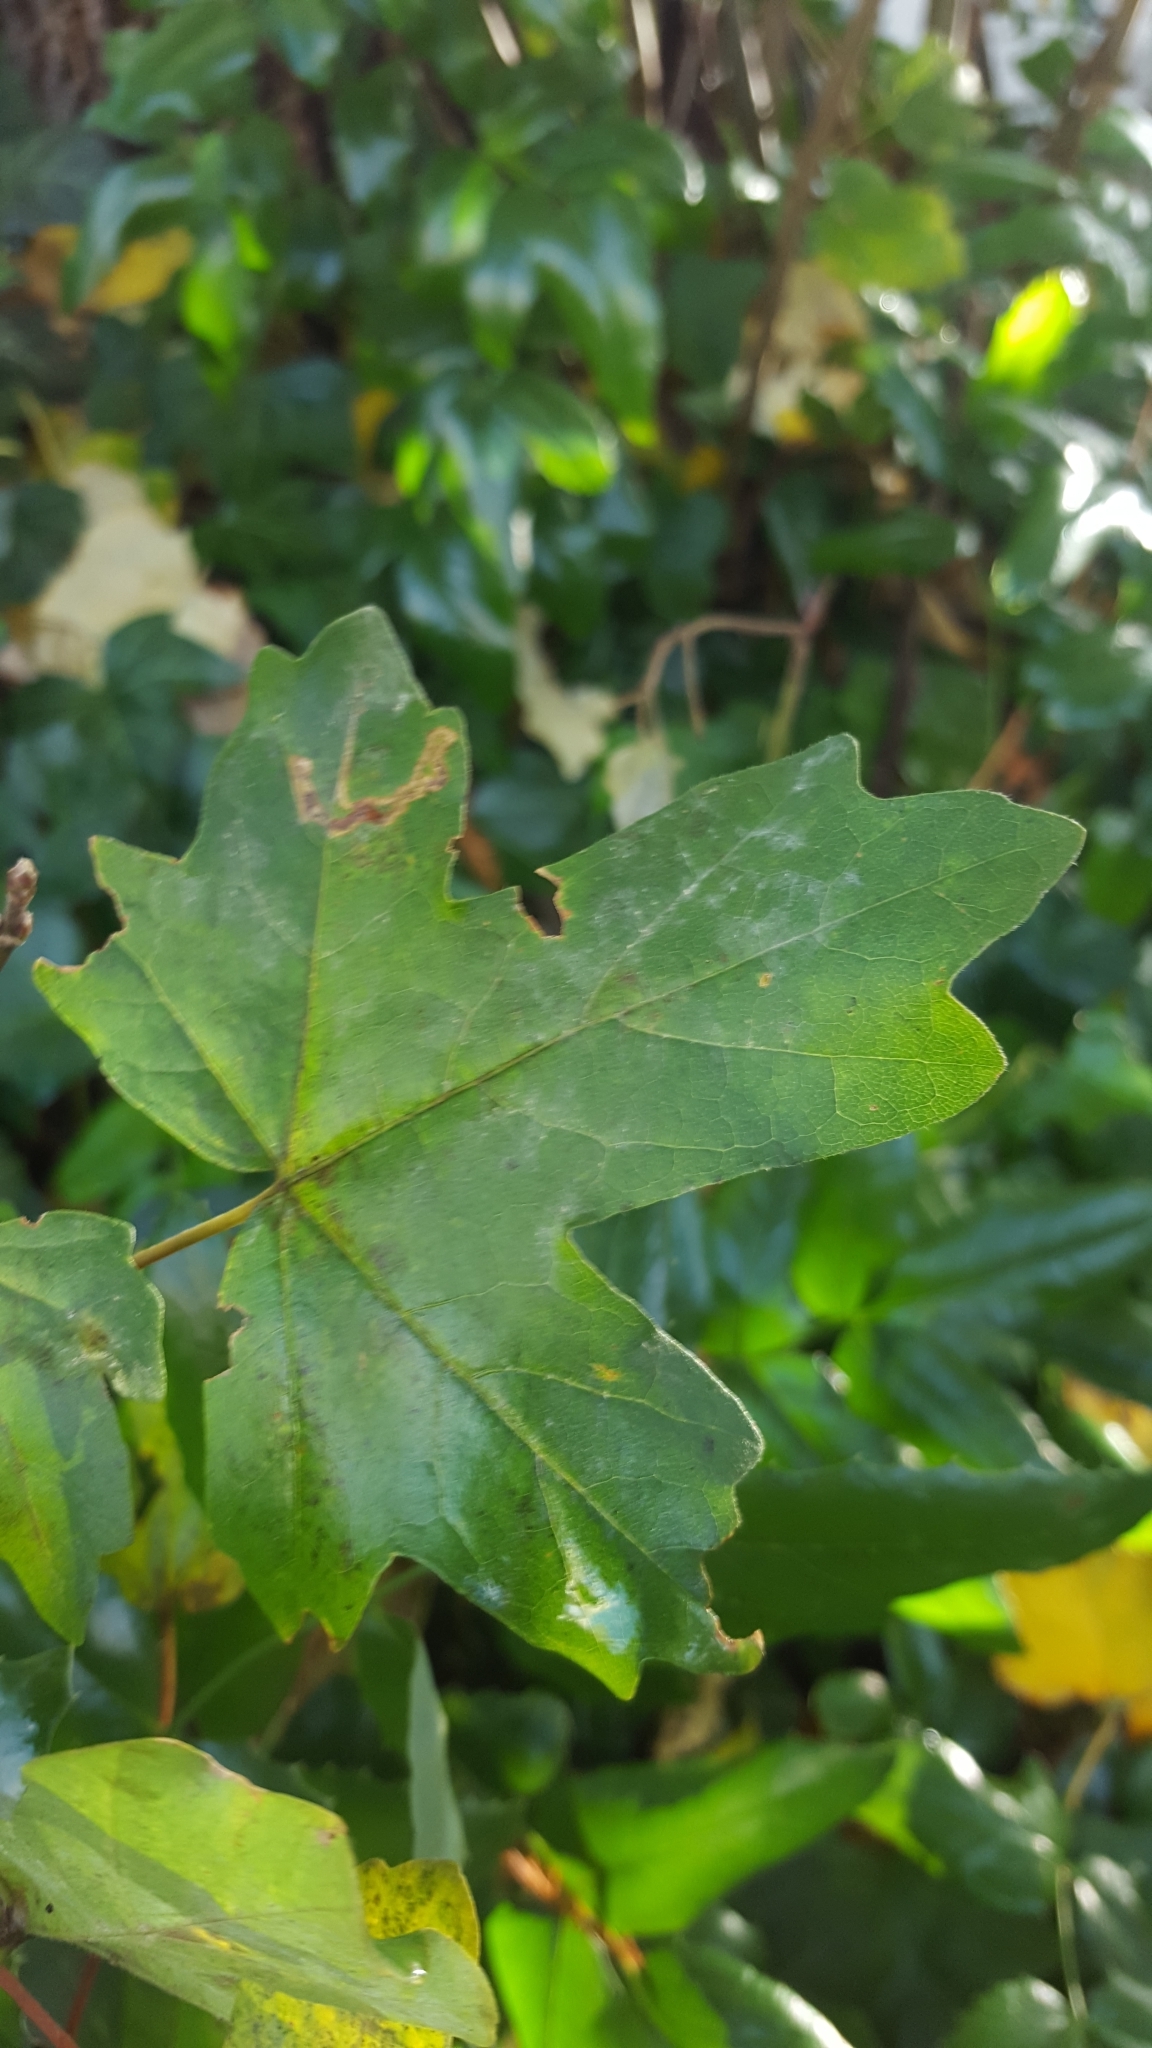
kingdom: Plantae
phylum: Tracheophyta
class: Magnoliopsida
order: Sapindales
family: Sapindaceae
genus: Acer
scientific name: Acer campestre
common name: Field maple
